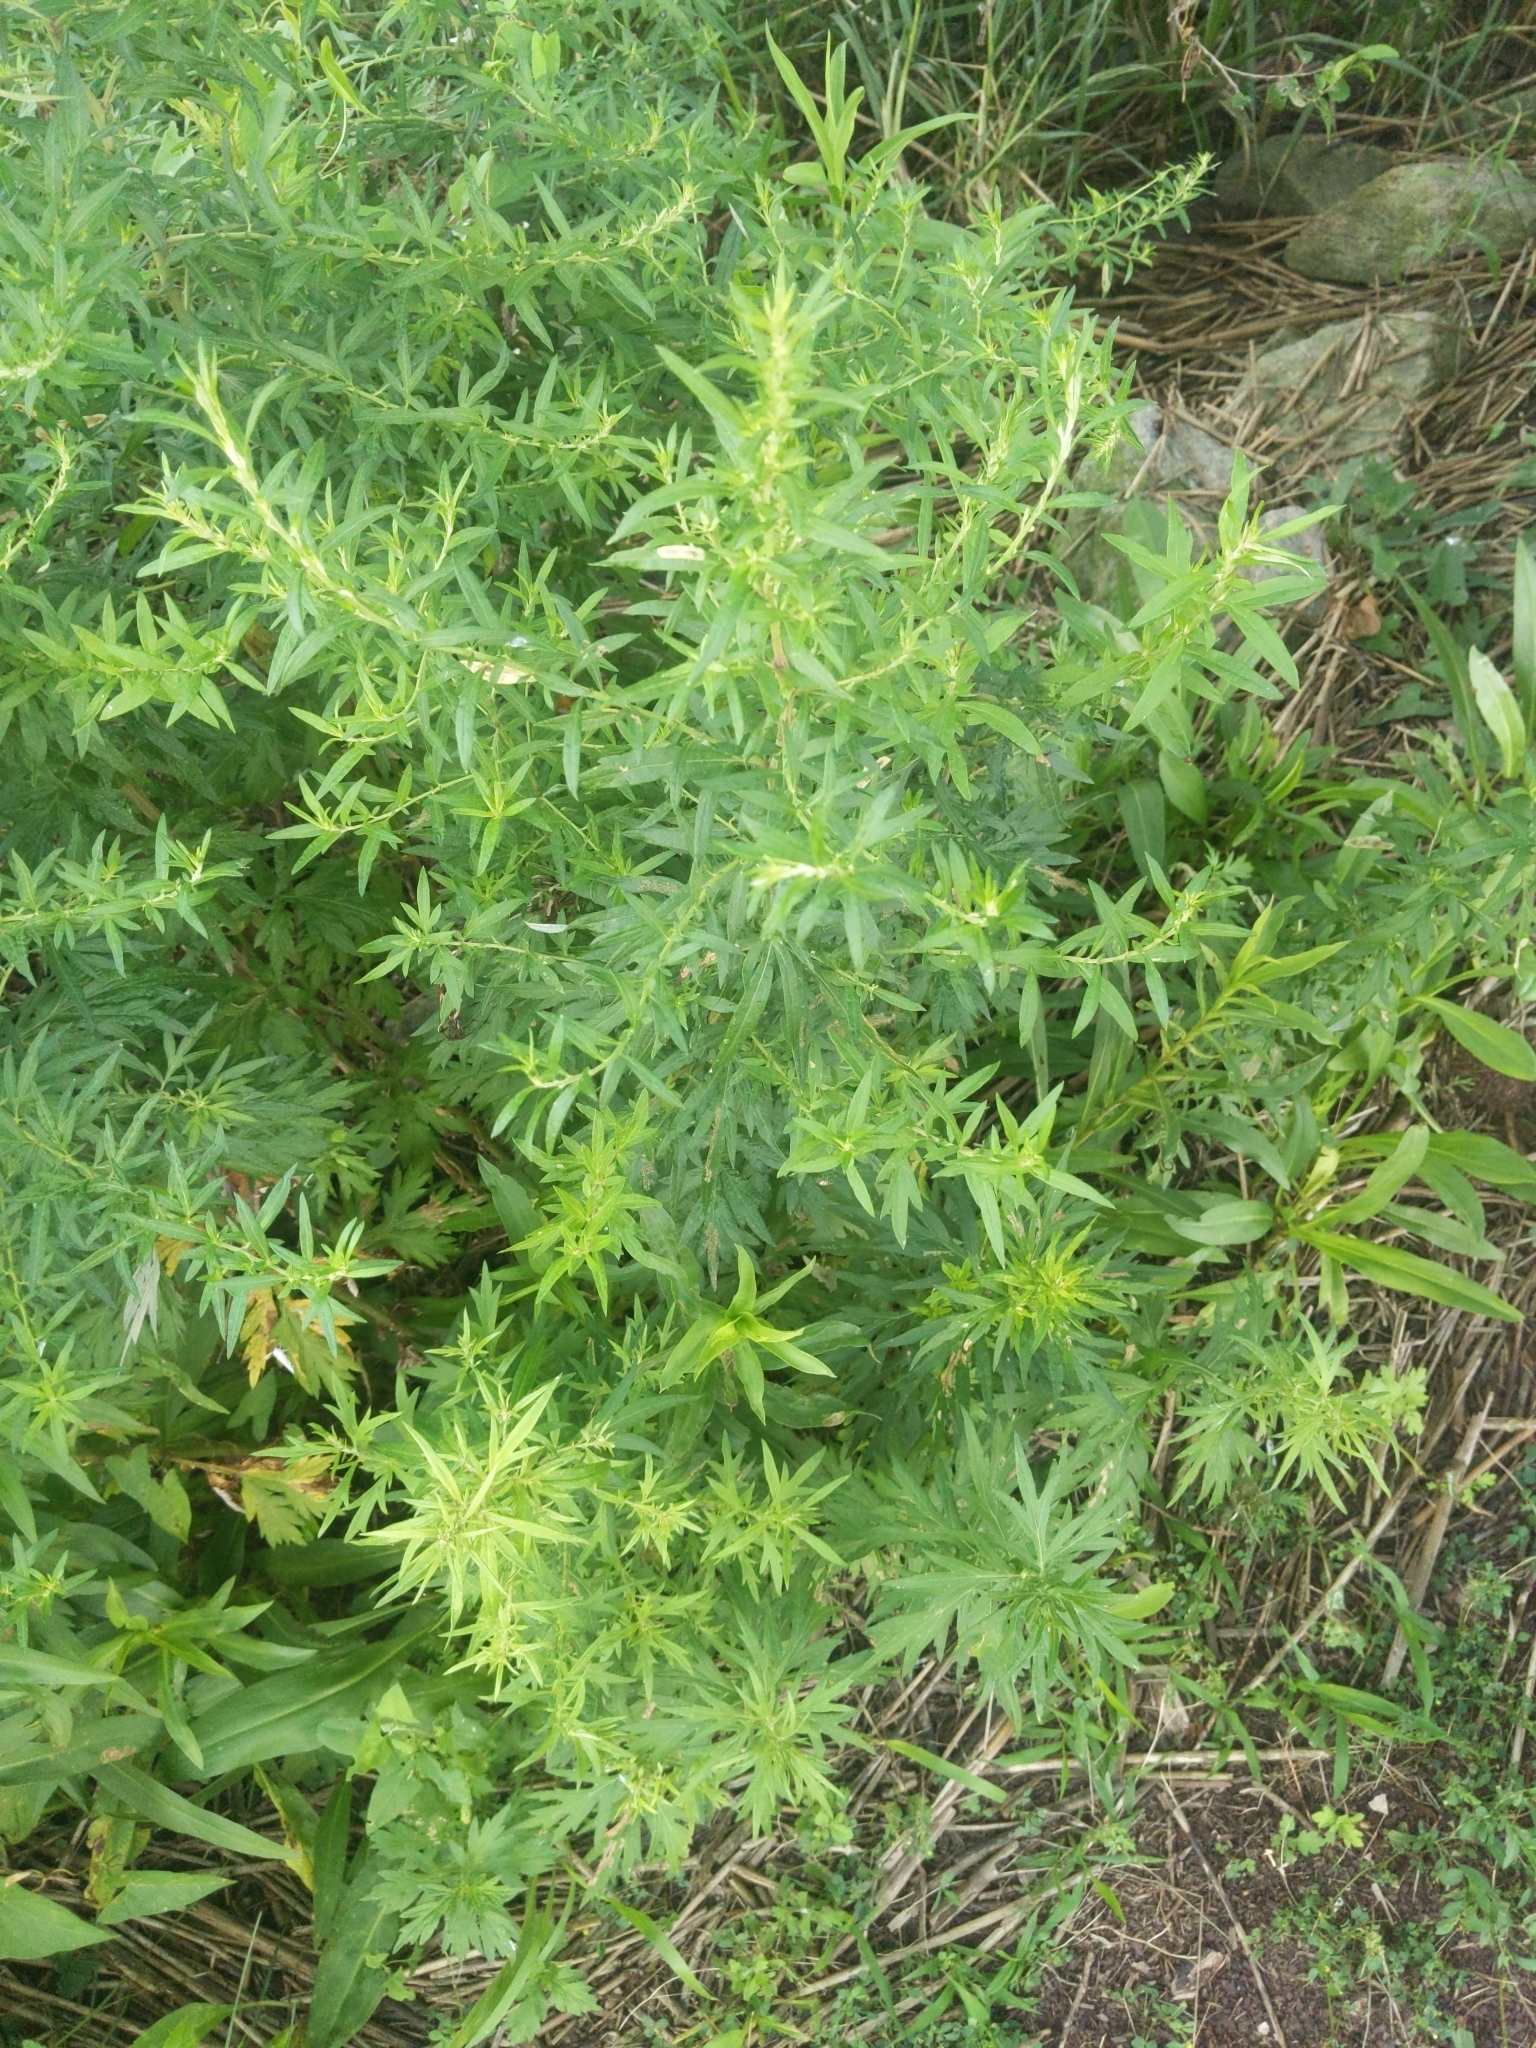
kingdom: Plantae
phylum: Tracheophyta
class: Magnoliopsida
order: Asterales
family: Asteraceae
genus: Artemisia
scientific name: Artemisia vulgaris
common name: Mugwort
